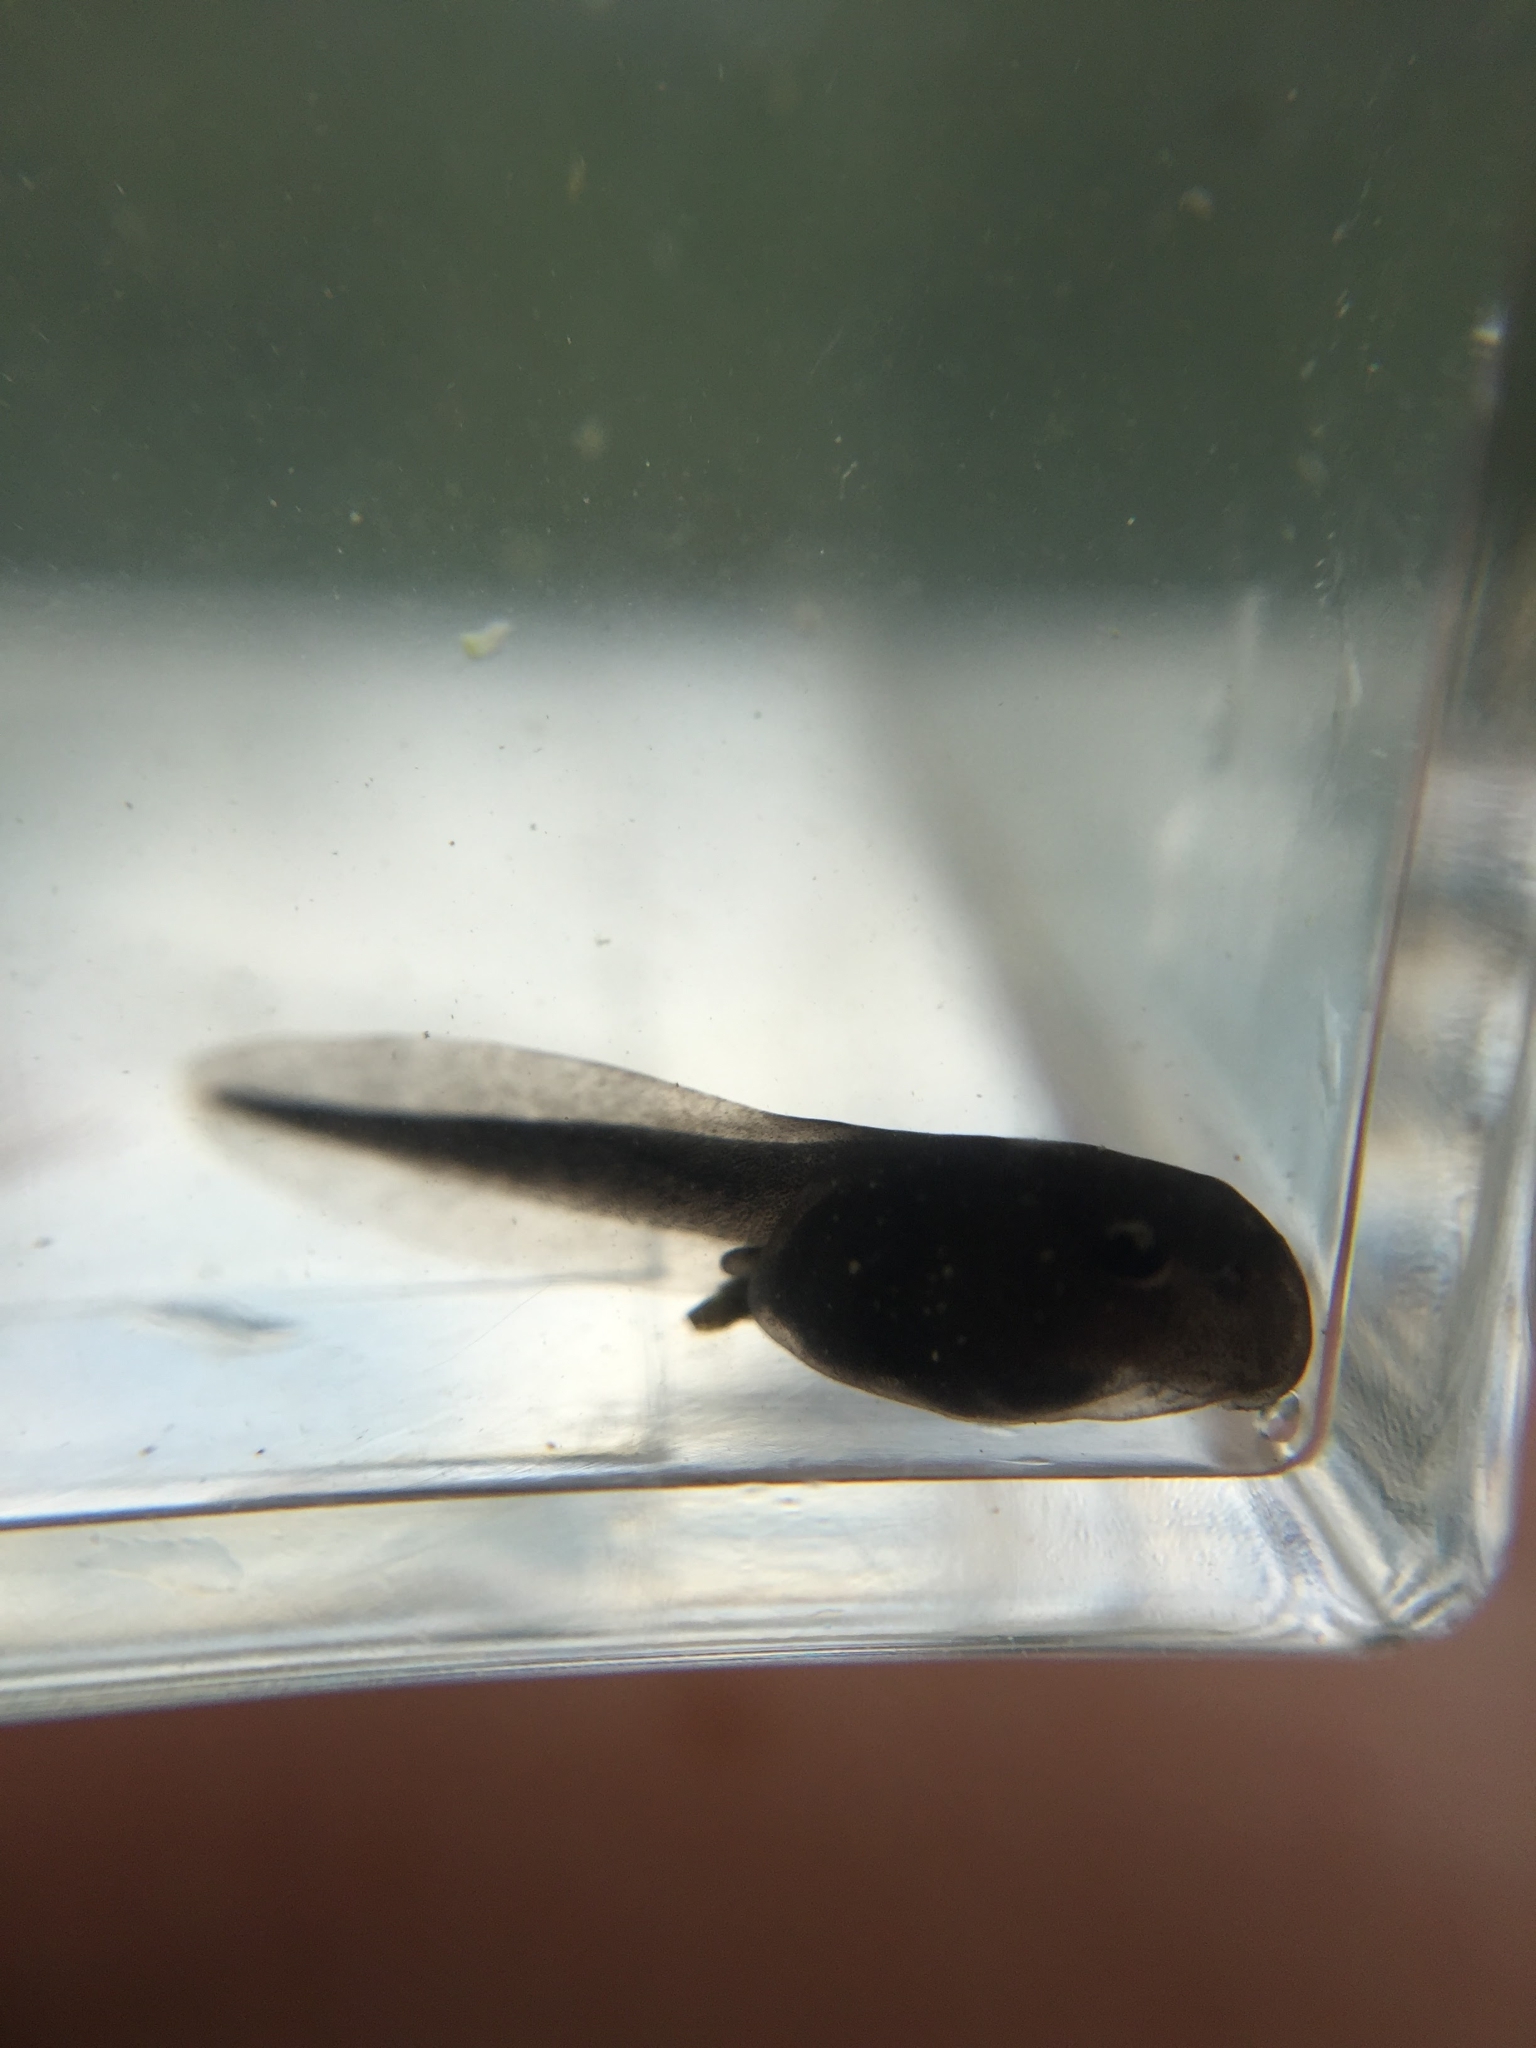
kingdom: Animalia
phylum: Chordata
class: Amphibia
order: Anura
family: Bufonidae
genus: Anaxyrus
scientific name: Anaxyrus americanus
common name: American toad
